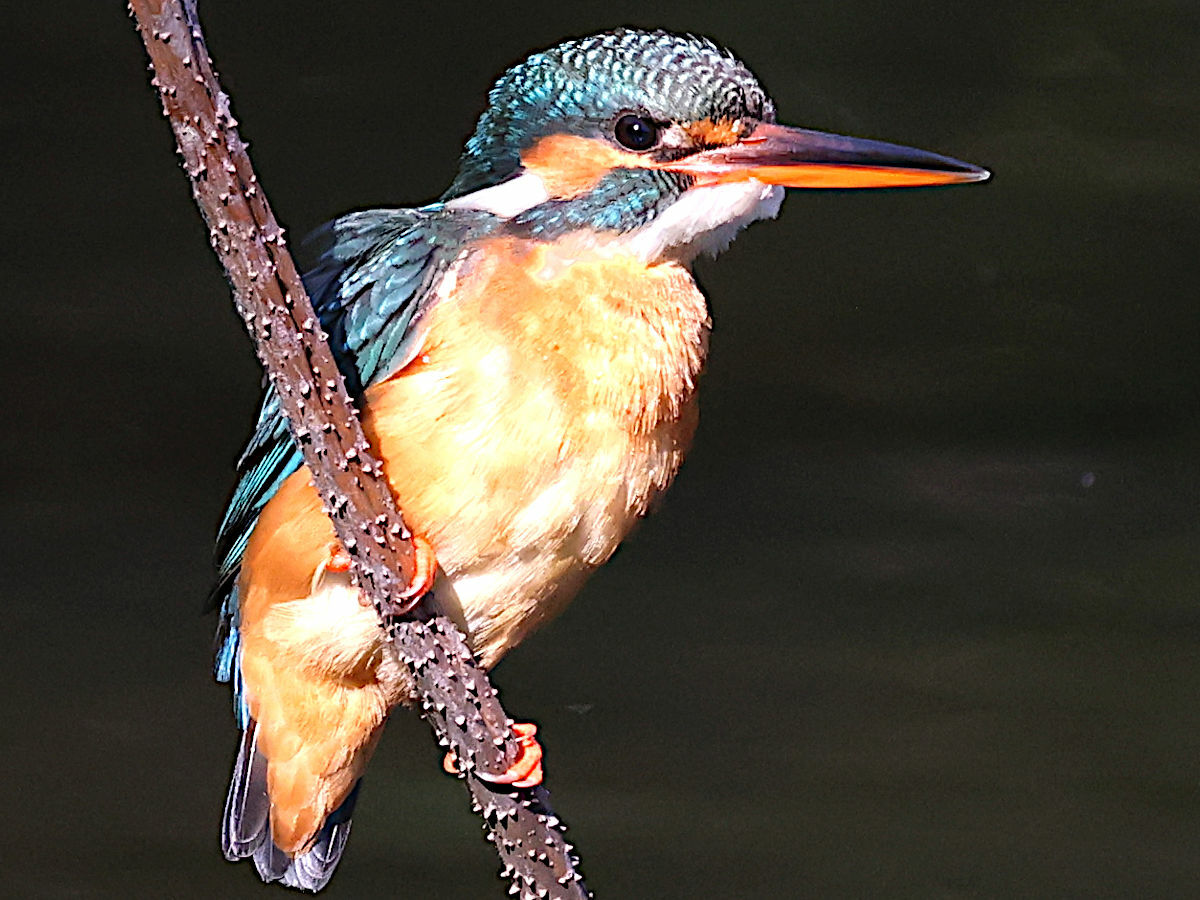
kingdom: Animalia
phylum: Chordata
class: Aves
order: Coraciiformes
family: Alcedinidae
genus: Alcedo
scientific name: Alcedo atthis
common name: Common kingfisher
